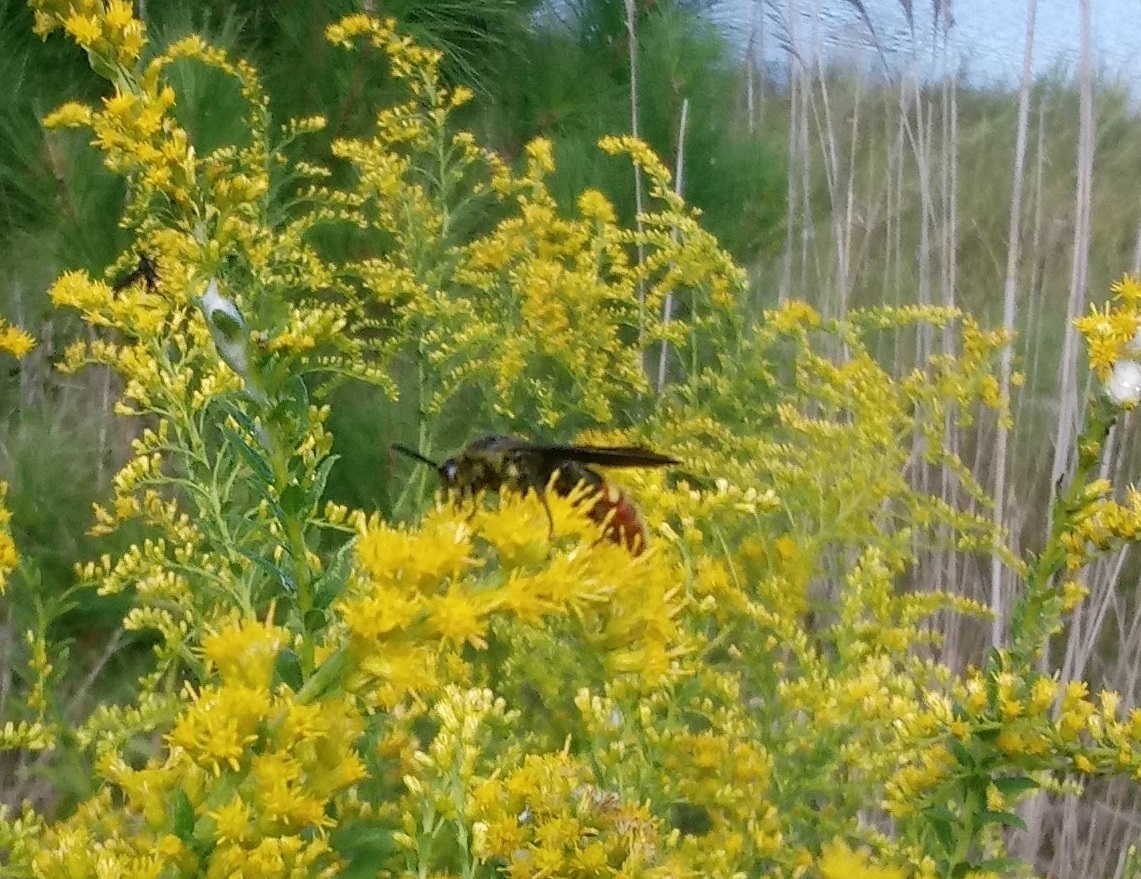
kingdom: Animalia
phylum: Arthropoda
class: Insecta
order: Hymenoptera
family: Scoliidae
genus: Scolia
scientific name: Scolia dubia
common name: Blue-winged scoliid wasp
